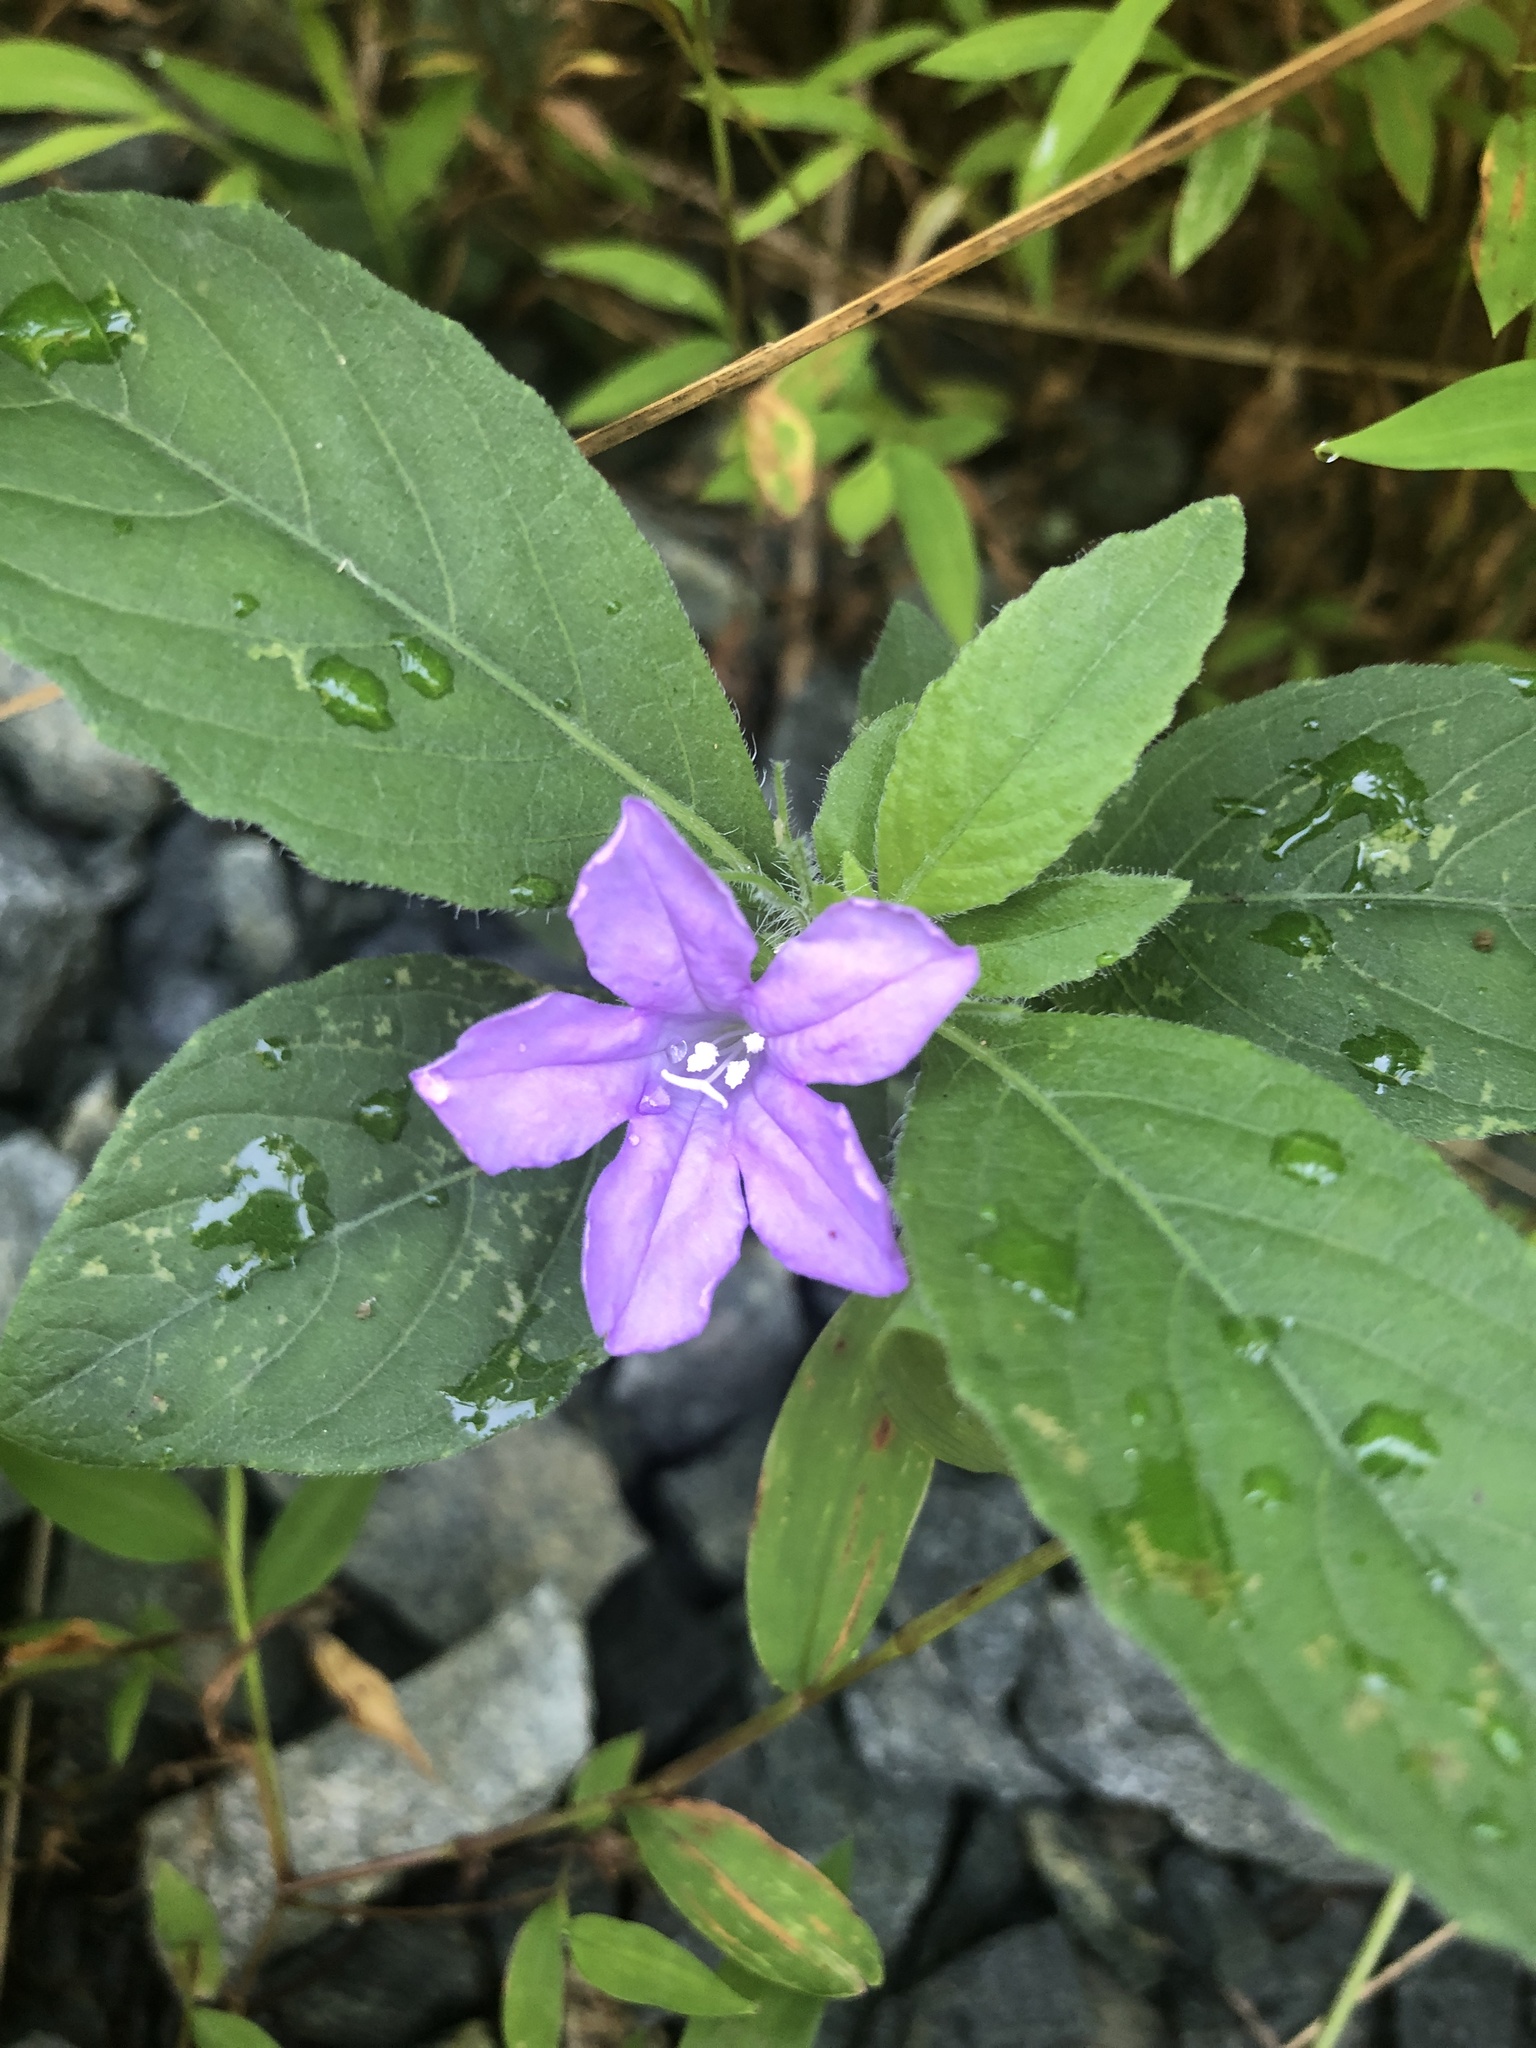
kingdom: Plantae
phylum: Tracheophyta
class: Magnoliopsida
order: Lamiales
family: Acanthaceae
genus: Ruellia
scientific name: Ruellia caroliniensis
